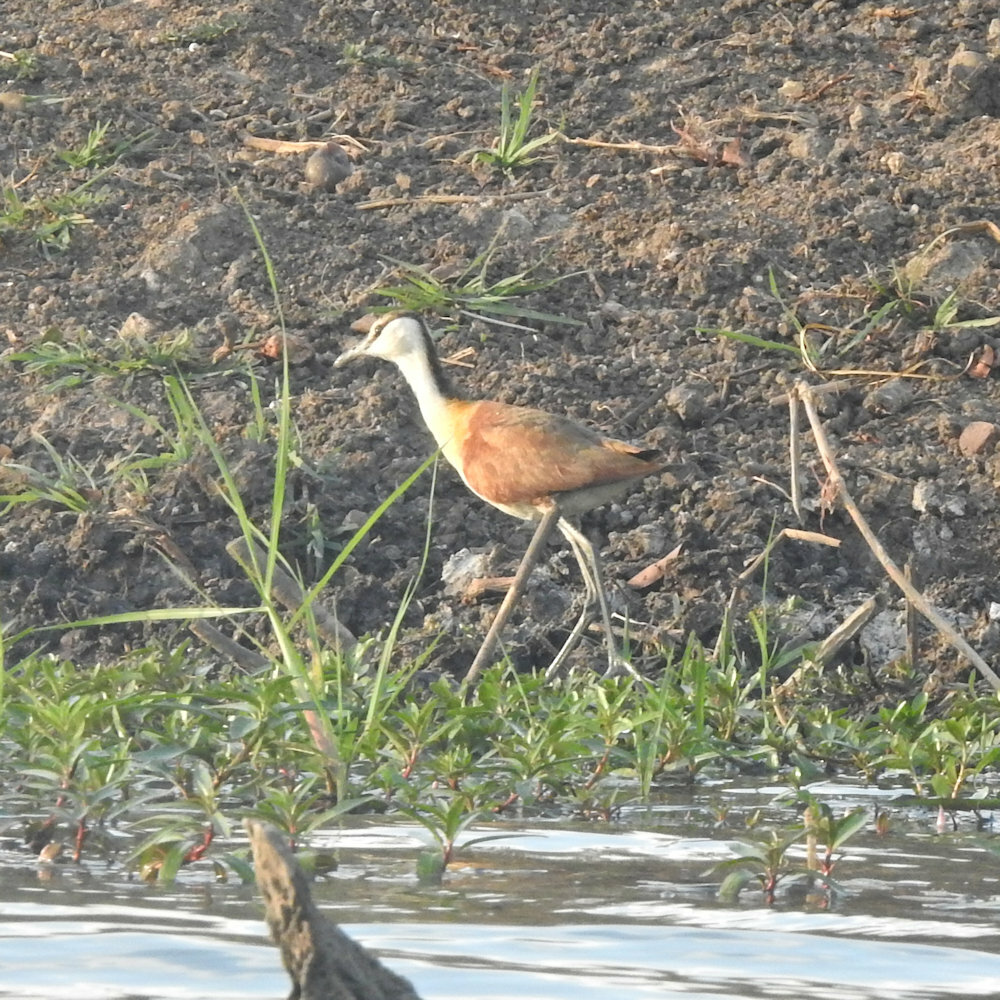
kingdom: Animalia
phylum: Chordata
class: Aves
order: Charadriiformes
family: Jacanidae
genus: Actophilornis
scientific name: Actophilornis africanus
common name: African jacana
